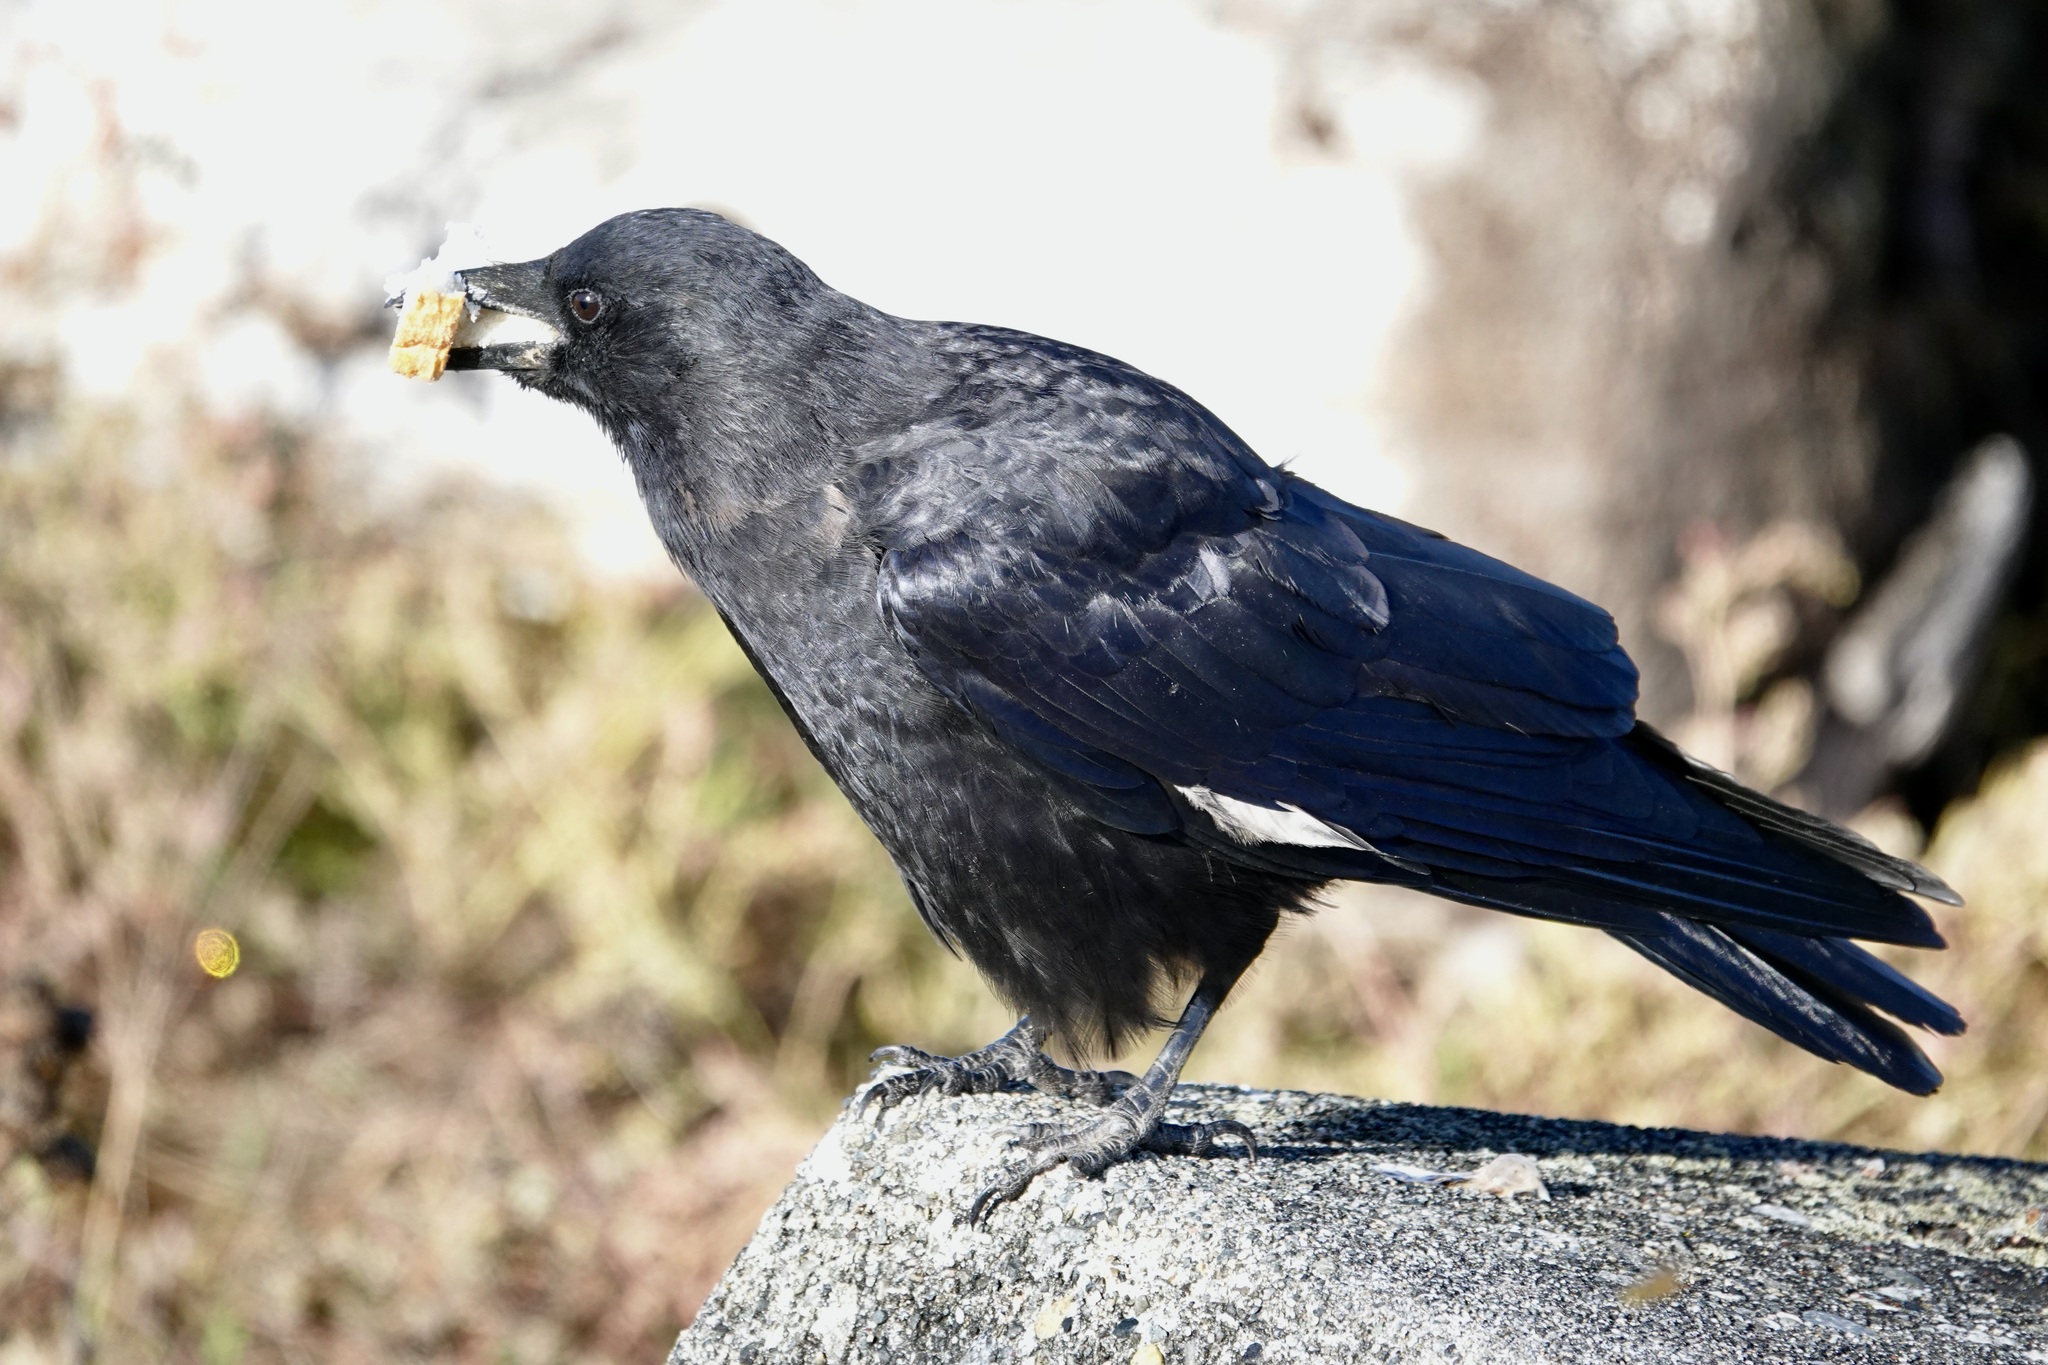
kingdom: Animalia
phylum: Chordata
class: Aves
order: Passeriformes
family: Corvidae
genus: Corvus
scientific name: Corvus brachyrhynchos
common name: American crow
